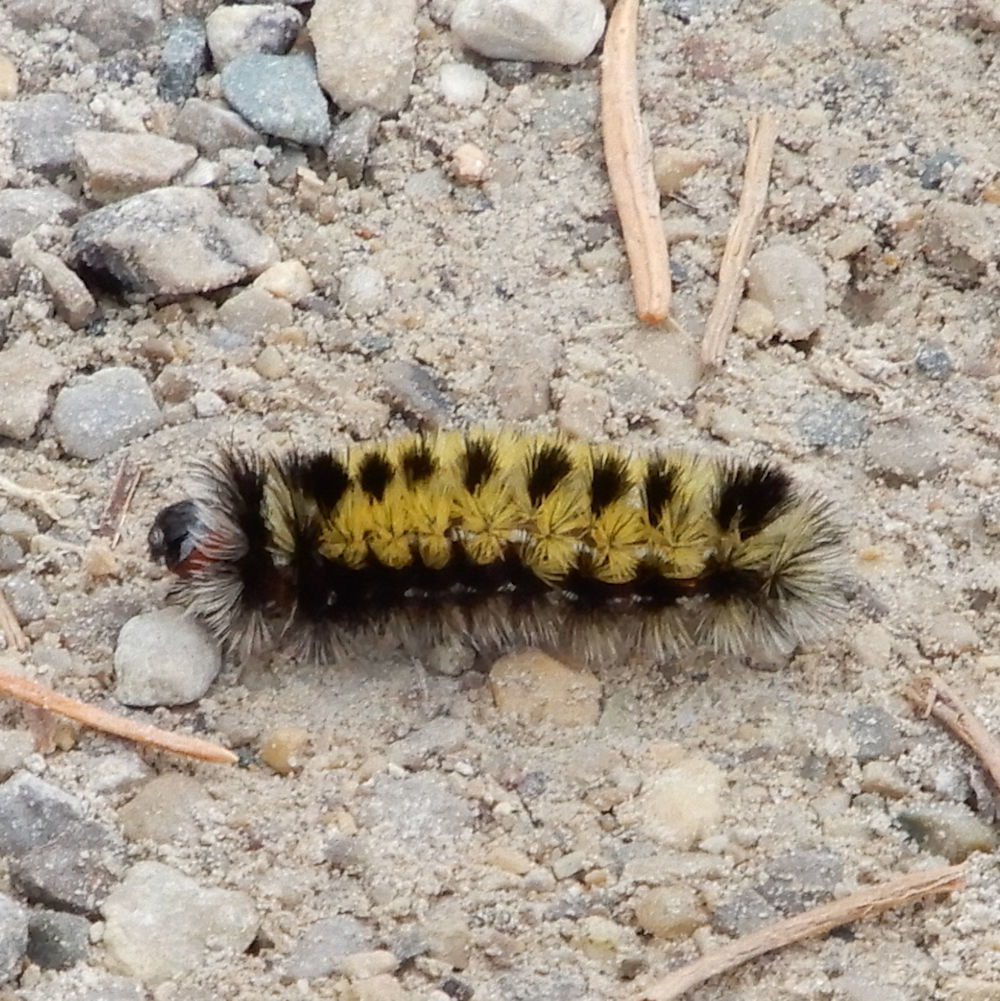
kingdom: Animalia
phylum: Arthropoda
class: Insecta
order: Lepidoptera
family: Erebidae
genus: Ctenucha
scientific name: Ctenucha virginica
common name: Virginia ctenucha moth
